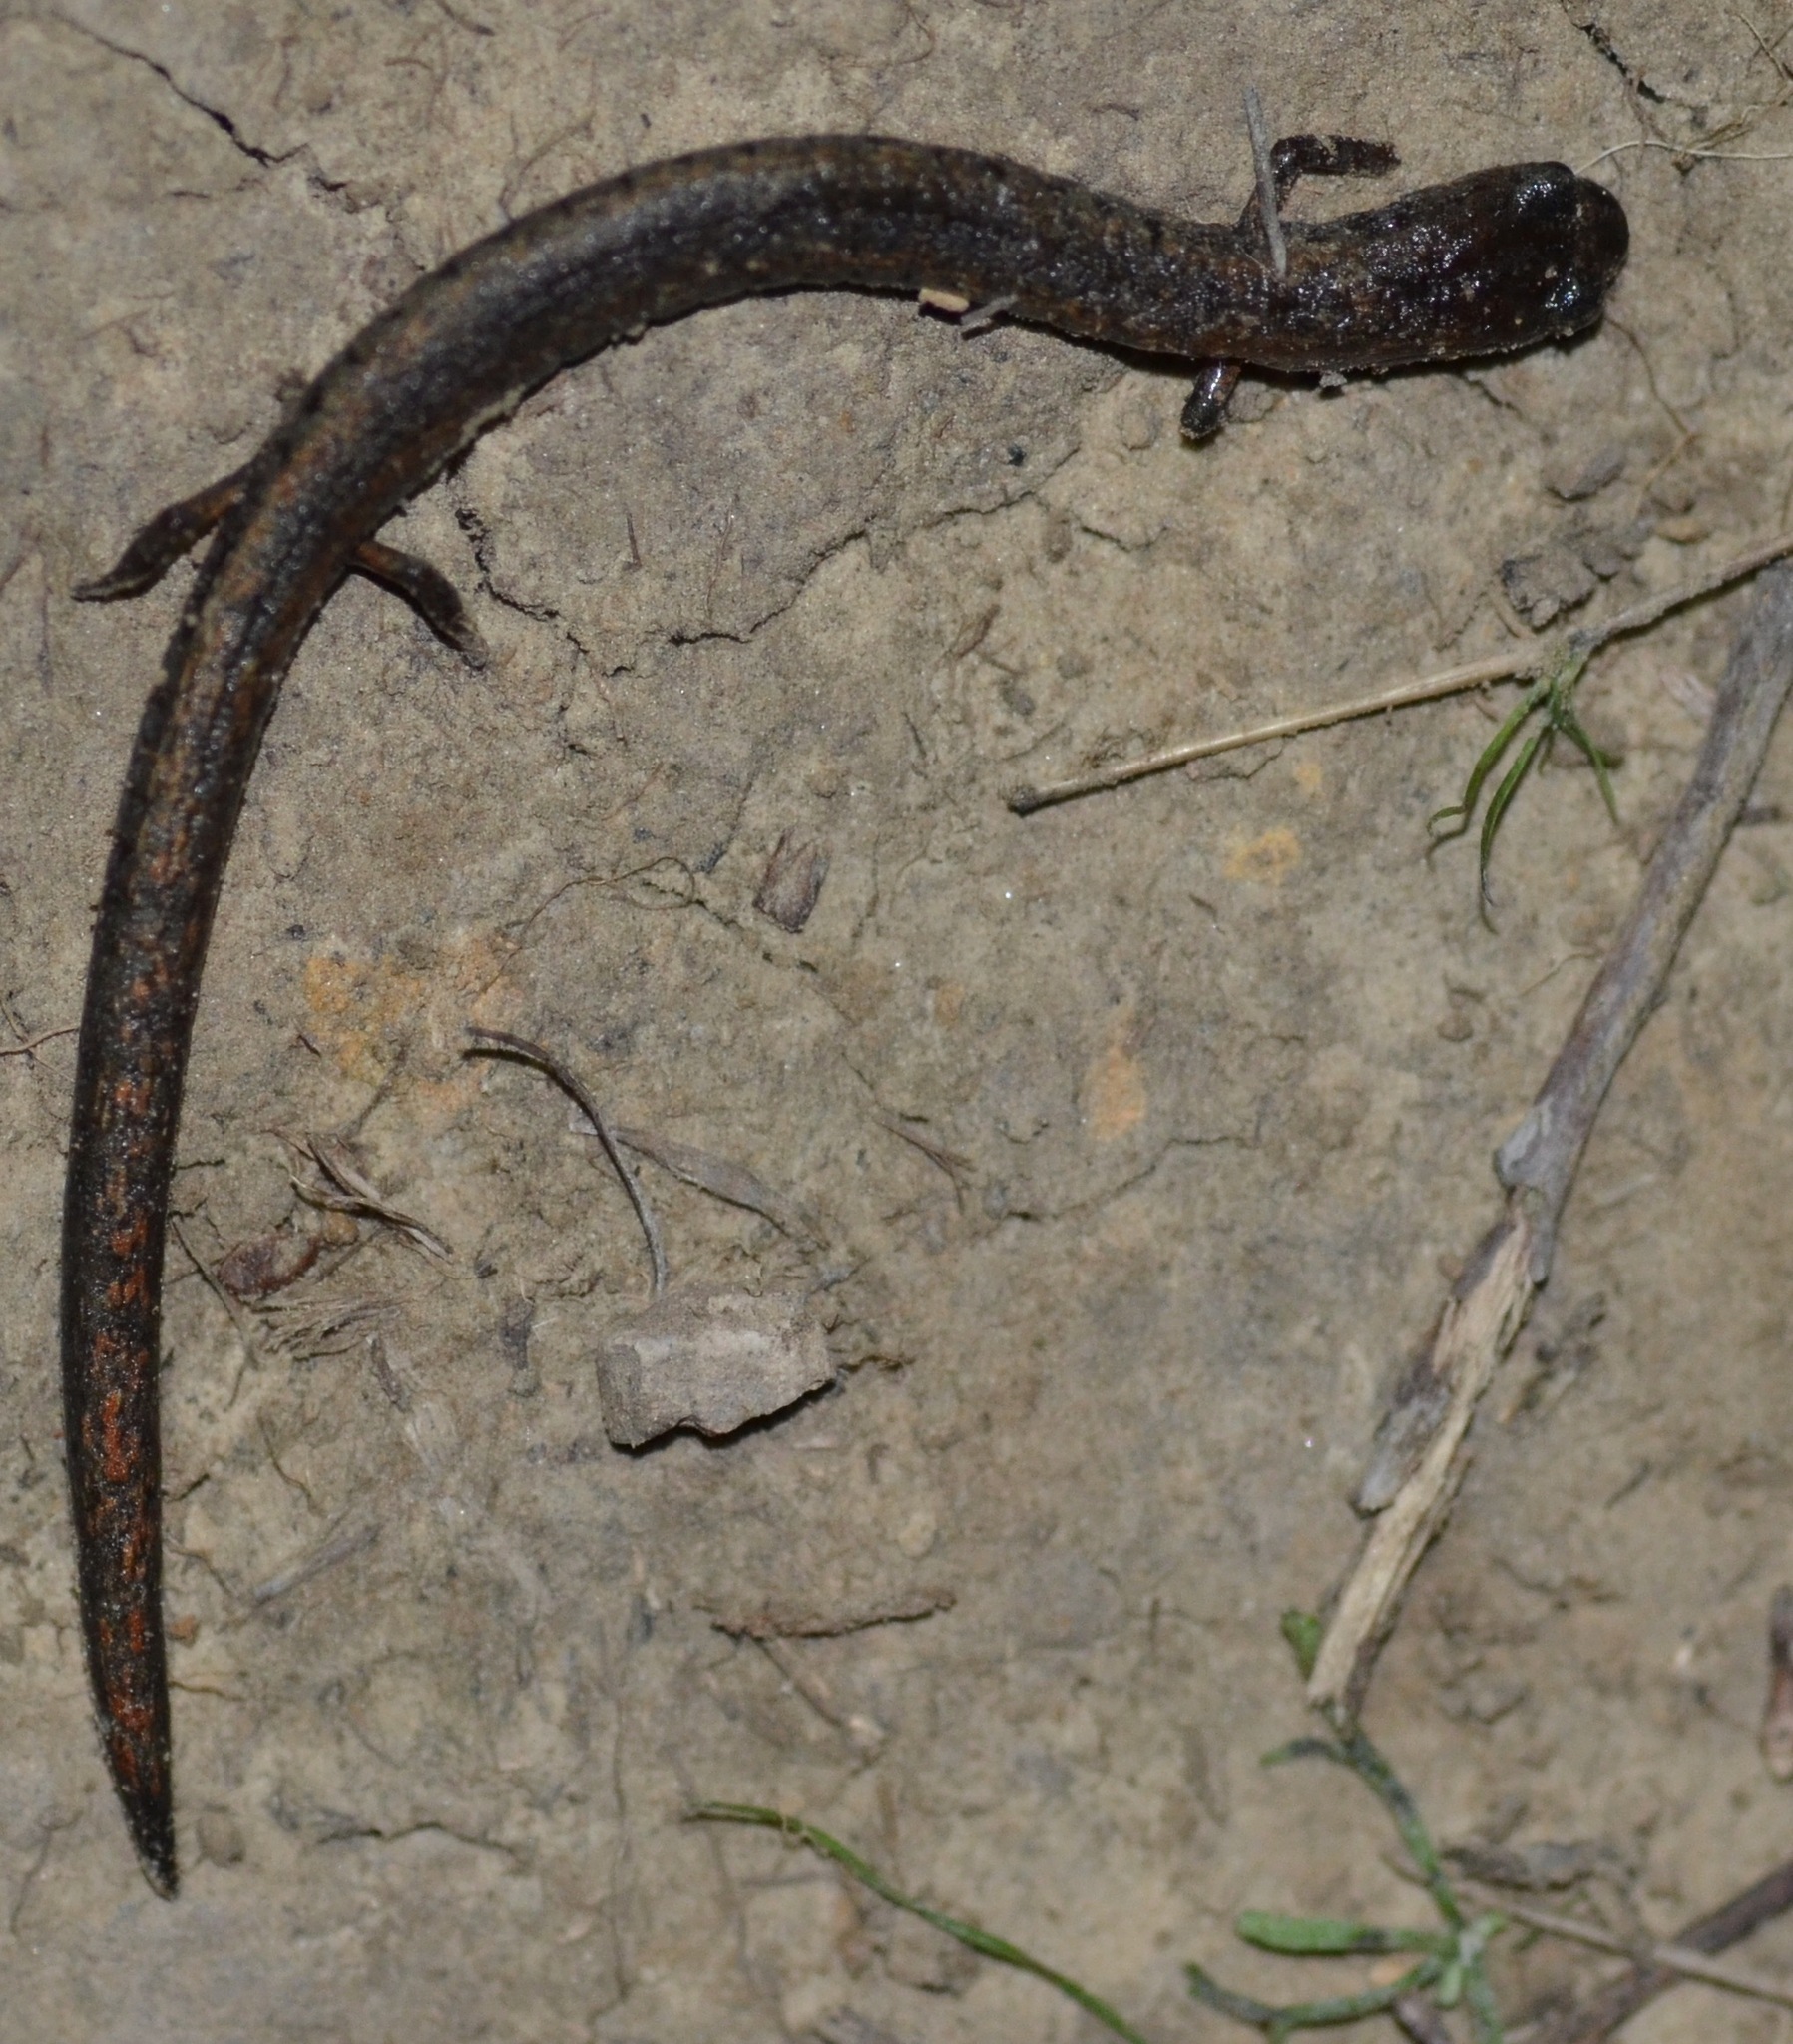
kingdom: Animalia
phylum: Chordata
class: Amphibia
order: Caudata
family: Plethodontidae
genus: Batrachoseps
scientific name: Batrachoseps attenuatus
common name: California slender salamander
